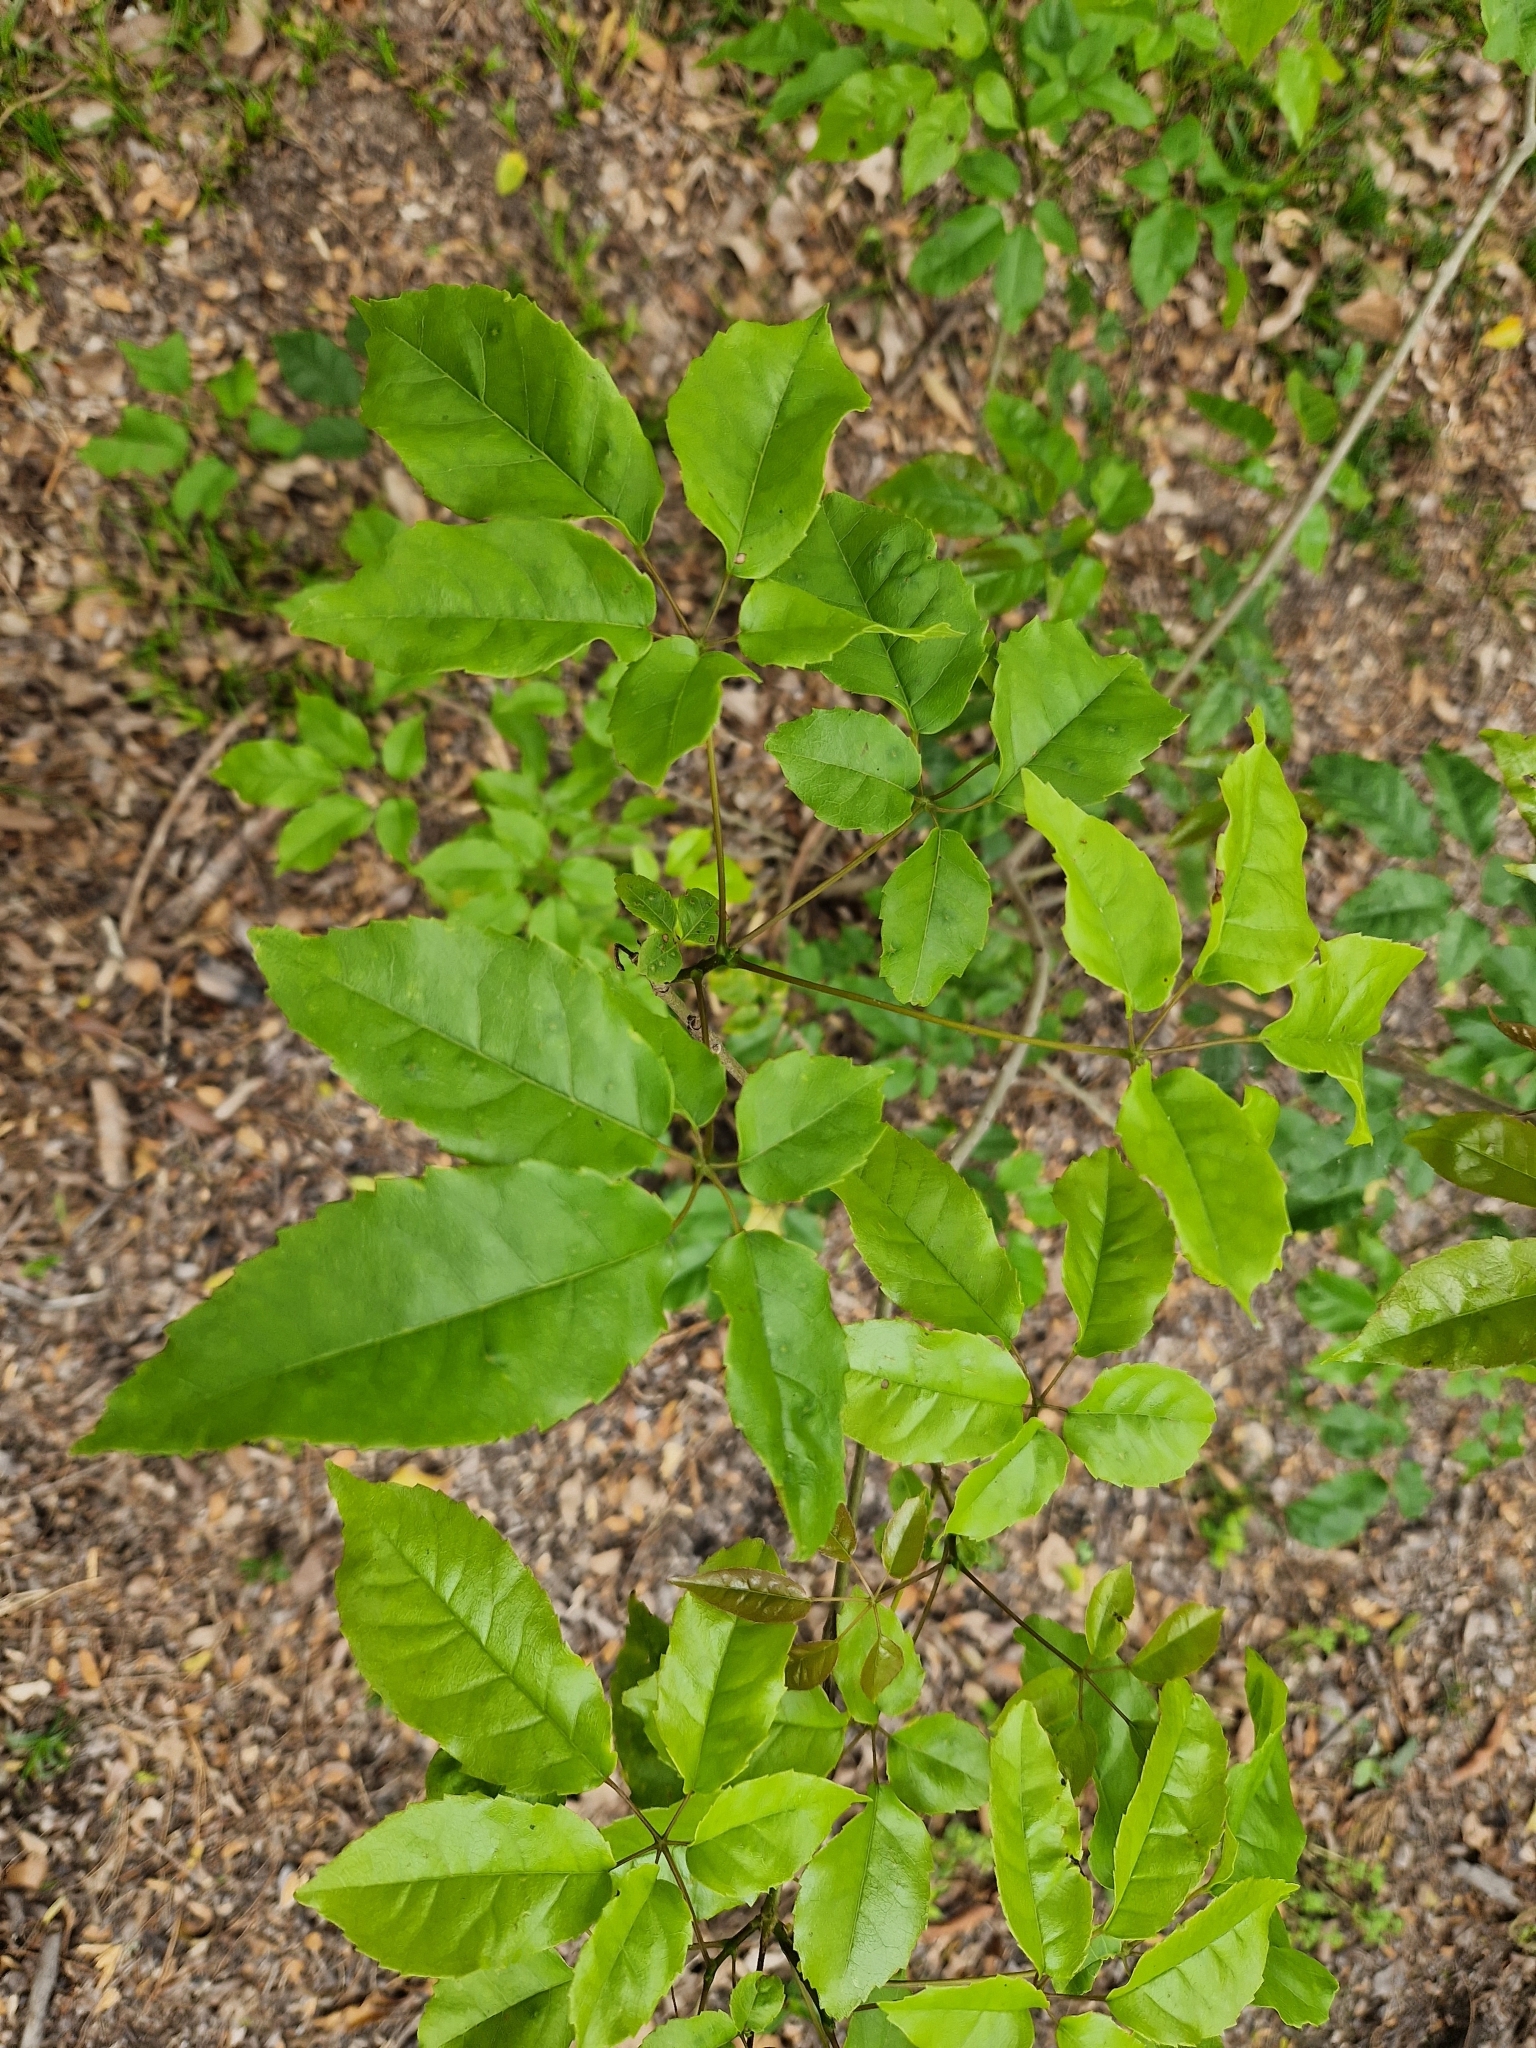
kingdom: Plantae
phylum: Tracheophyta
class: Magnoliopsida
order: Lamiales
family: Bignoniaceae
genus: Handroanthus
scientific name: Handroanthus heptaphyllus
